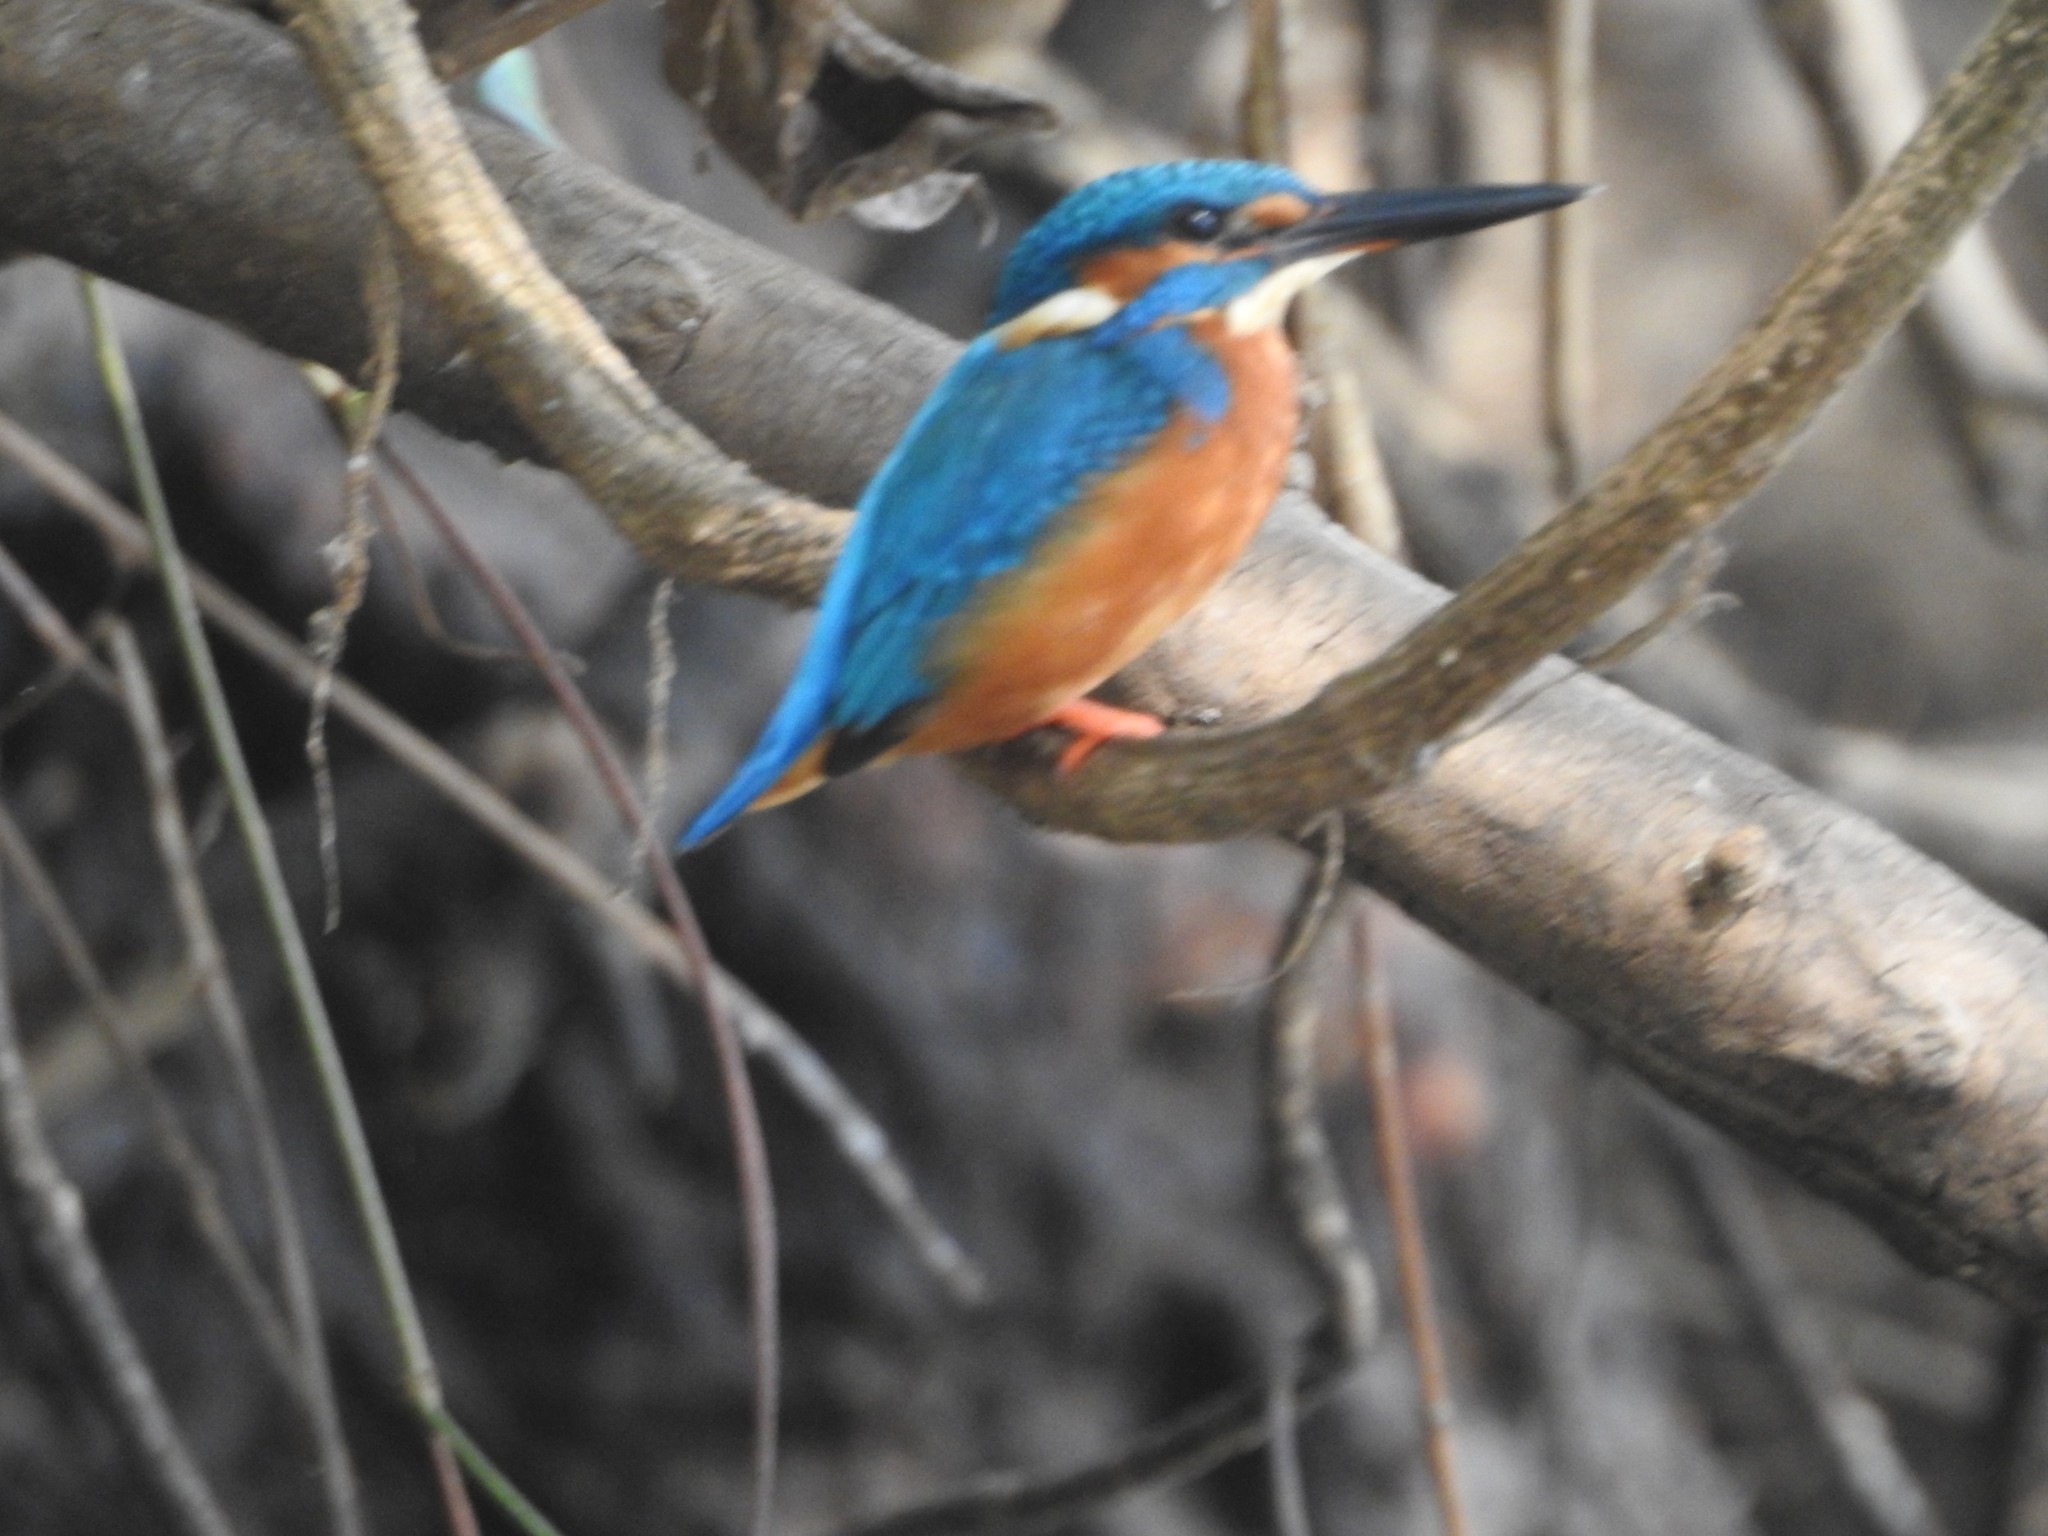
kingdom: Animalia
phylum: Chordata
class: Aves
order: Coraciiformes
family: Alcedinidae
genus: Alcedo
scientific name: Alcedo atthis
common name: Common kingfisher
